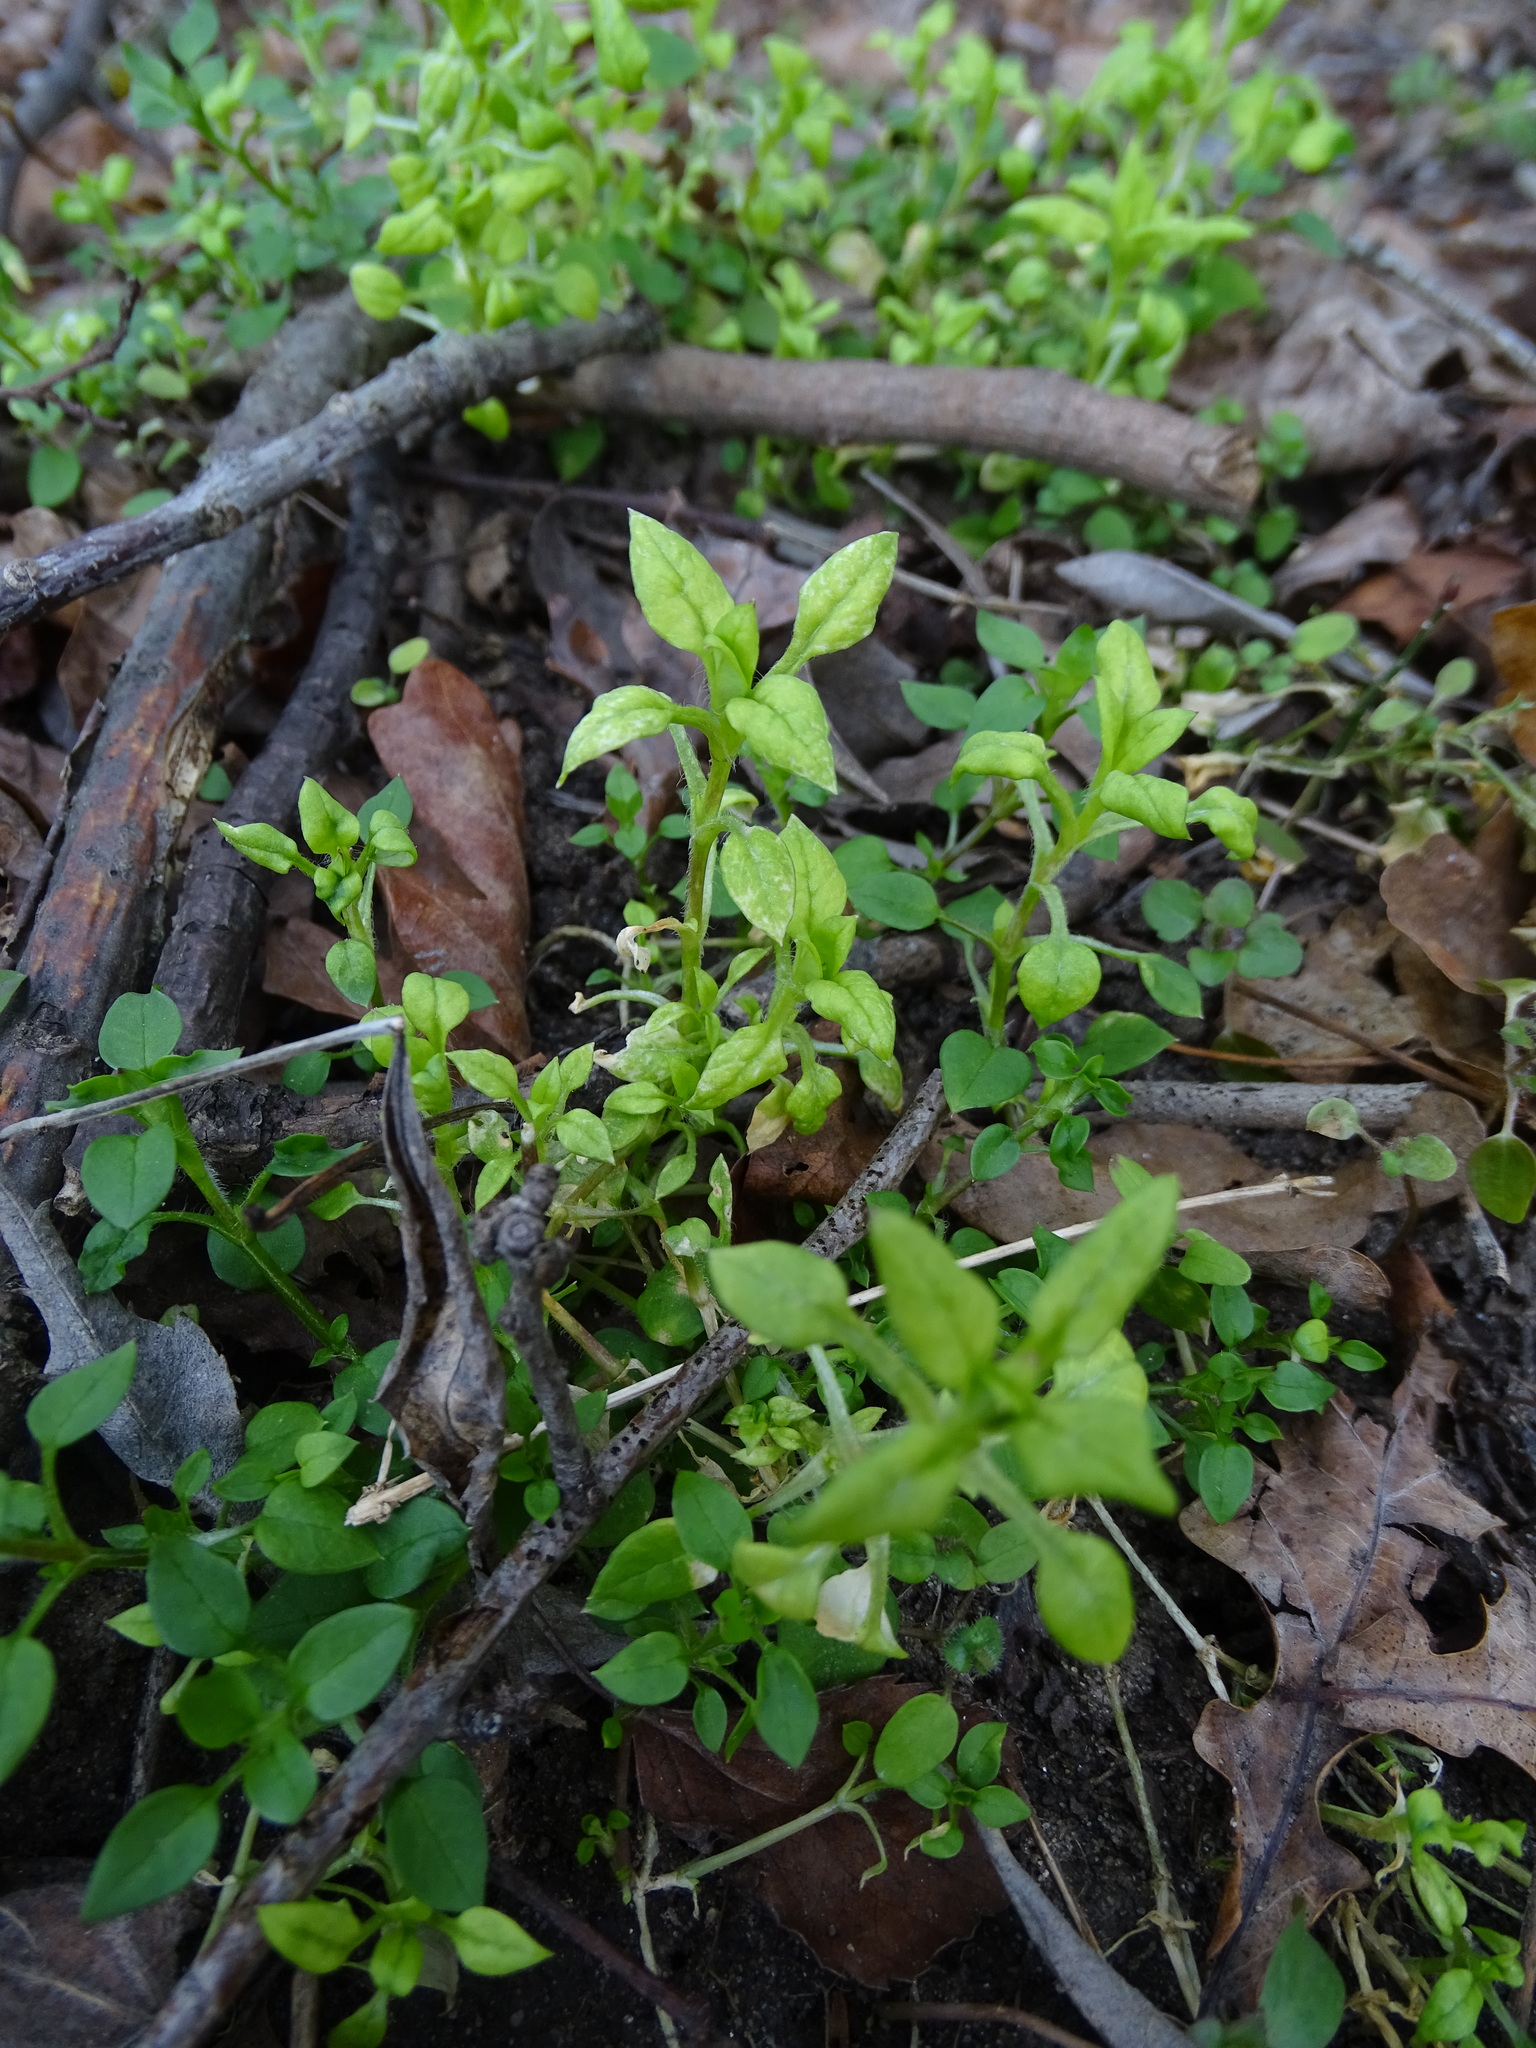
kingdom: Plantae
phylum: Tracheophyta
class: Magnoliopsida
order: Caryophyllales
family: Caryophyllaceae
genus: Stellaria
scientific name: Stellaria media
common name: Common chickweed
